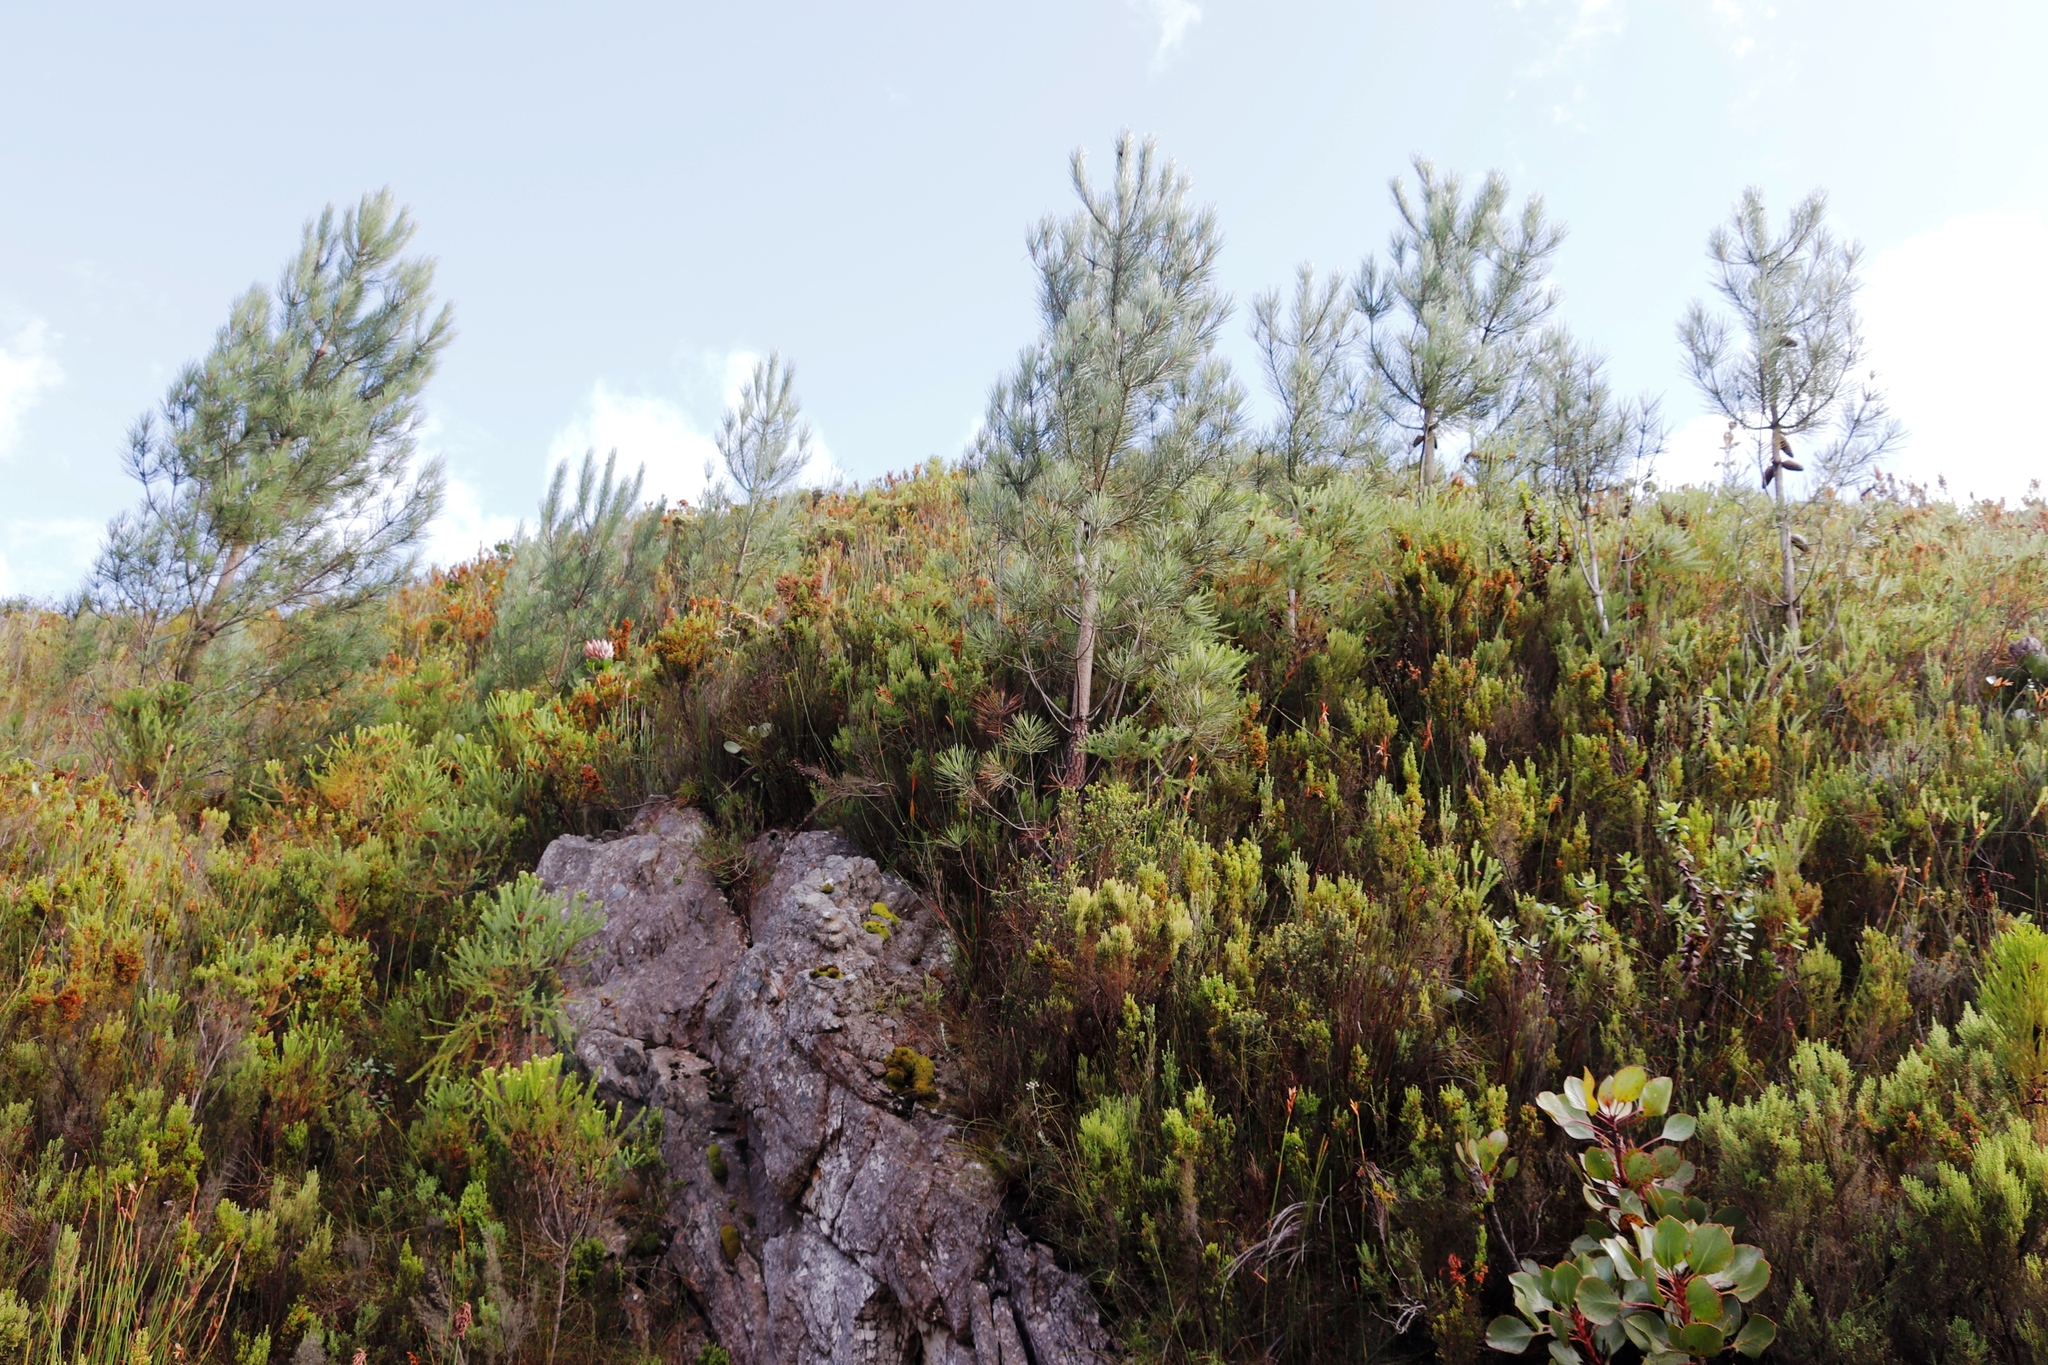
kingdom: Plantae
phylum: Tracheophyta
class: Magnoliopsida
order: Proteales
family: Proteaceae
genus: Protea
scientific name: Protea cynaroides
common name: King protea
